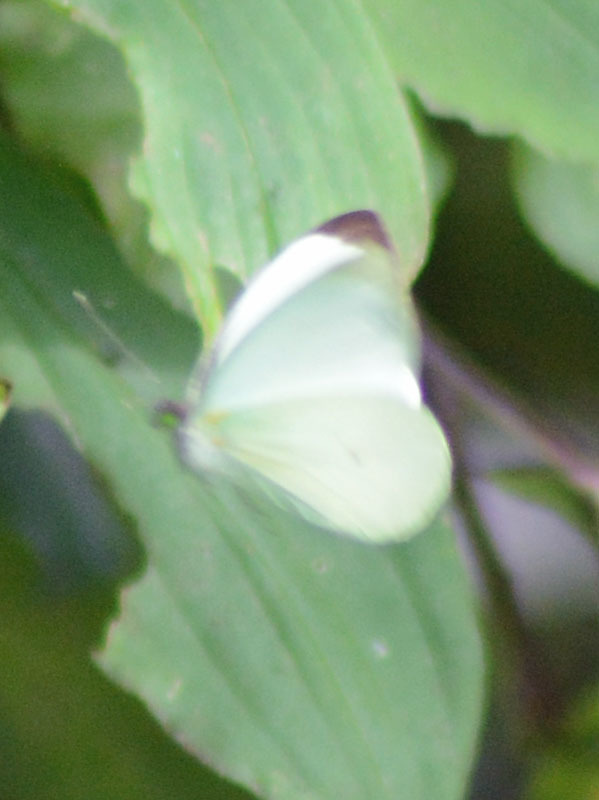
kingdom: Animalia
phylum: Arthropoda
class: Insecta
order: Lepidoptera
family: Pieridae
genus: Leptophobia
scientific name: Leptophobia aripa
